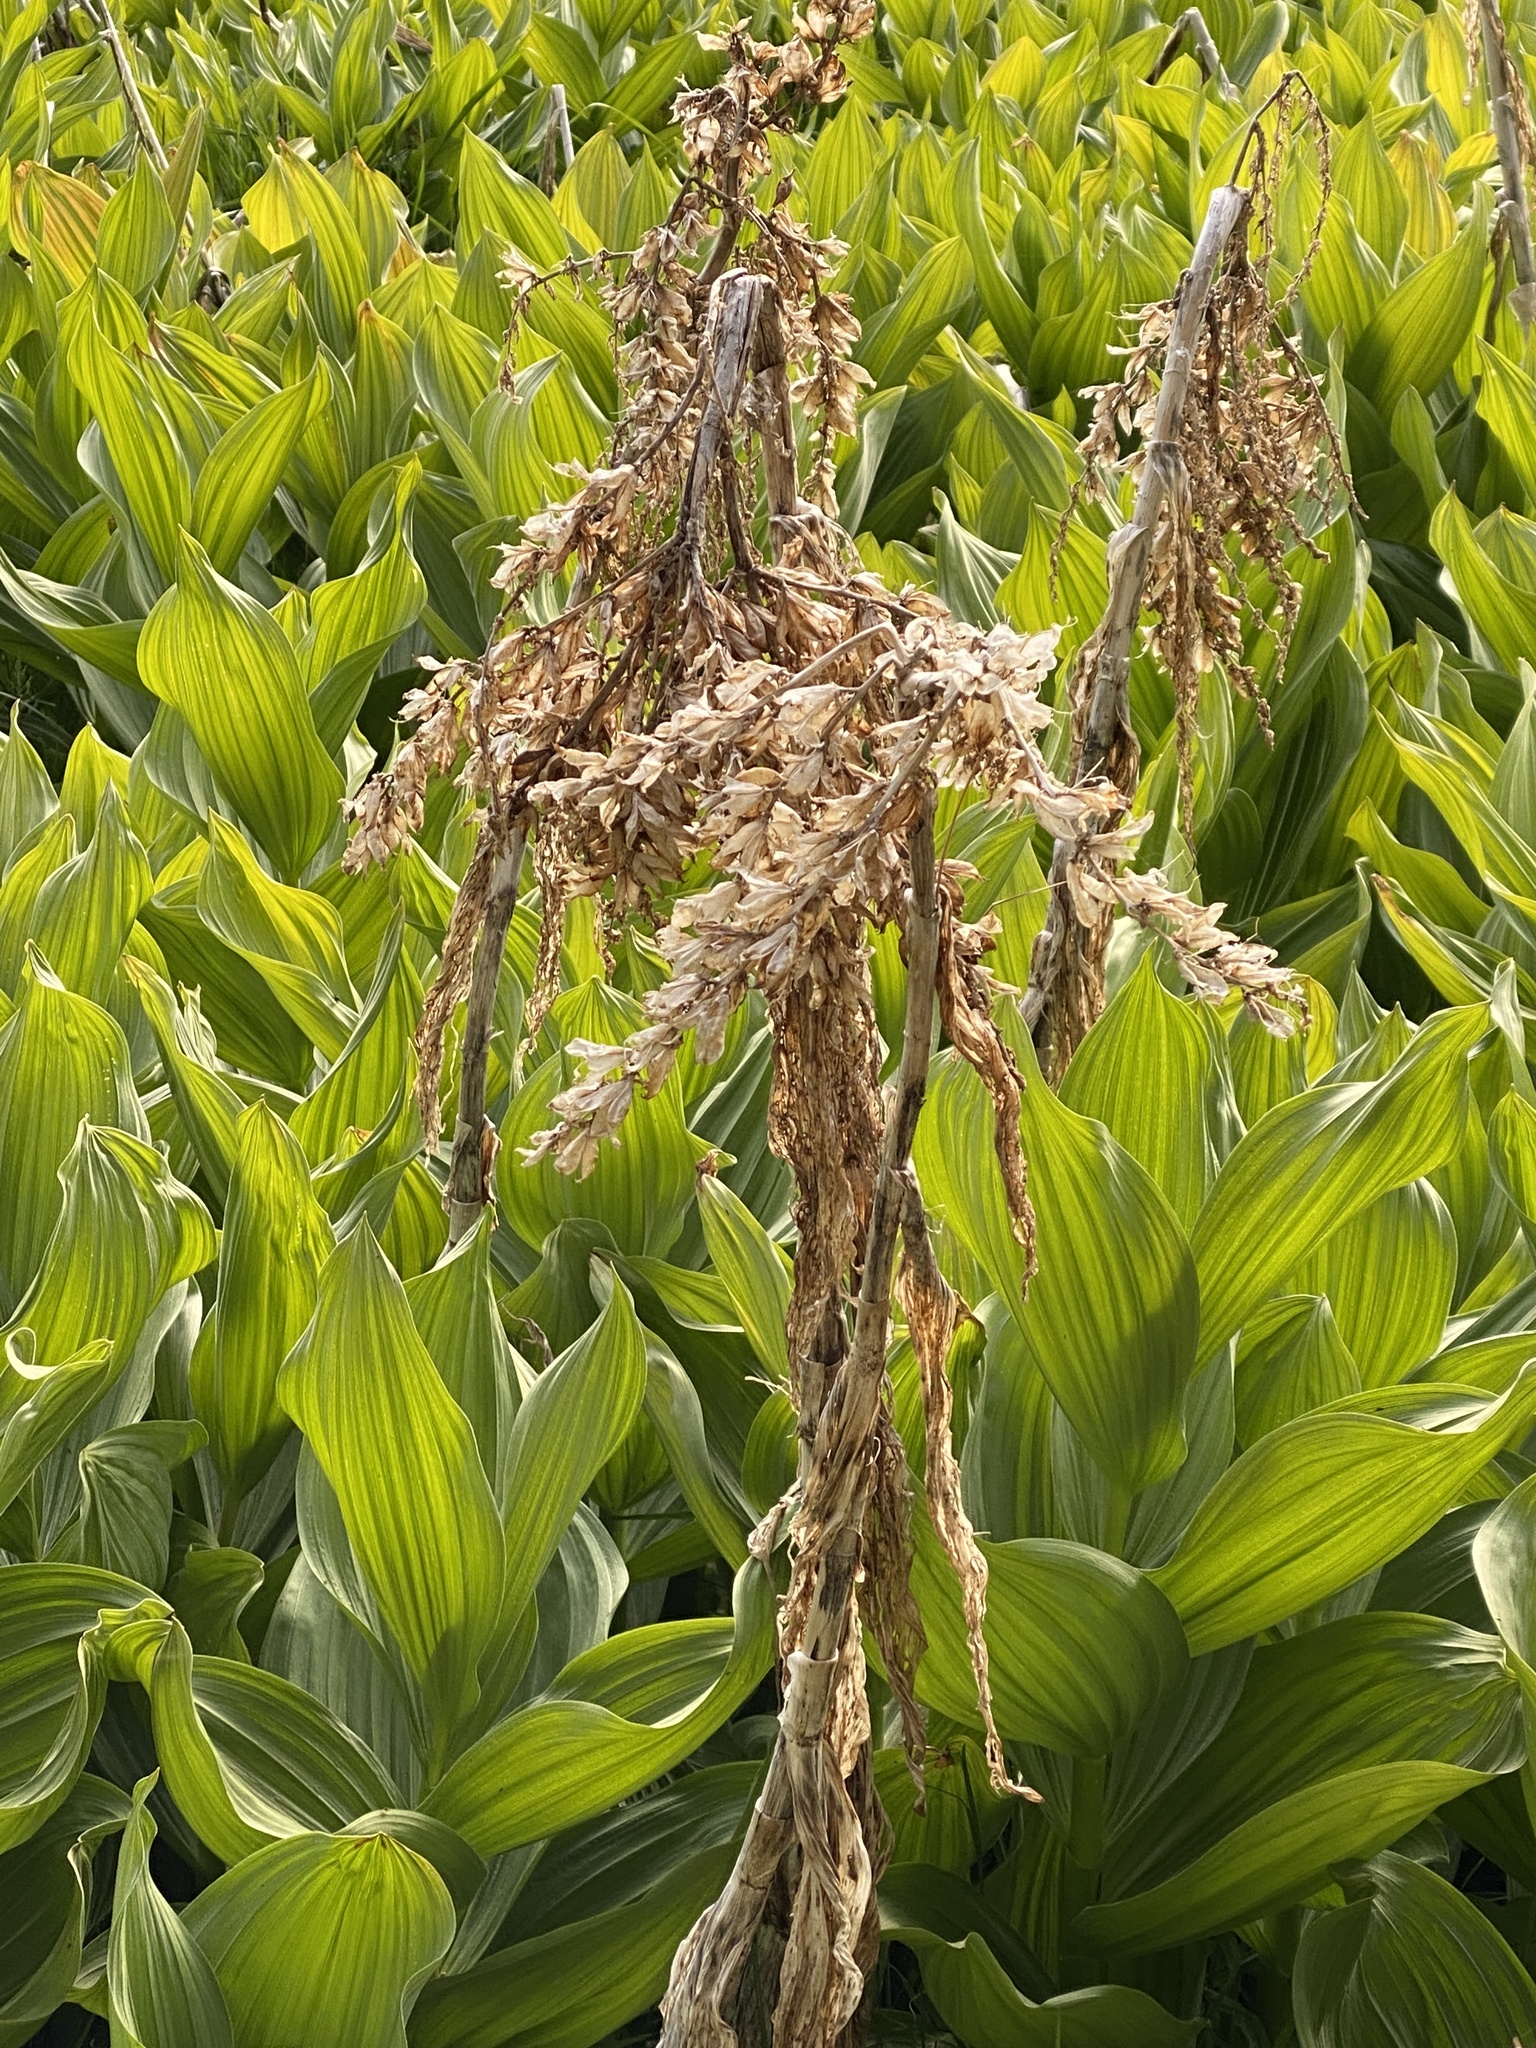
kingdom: Plantae
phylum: Tracheophyta
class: Liliopsida
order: Liliales
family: Melanthiaceae
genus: Veratrum
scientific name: Veratrum californicum
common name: California veratrum
